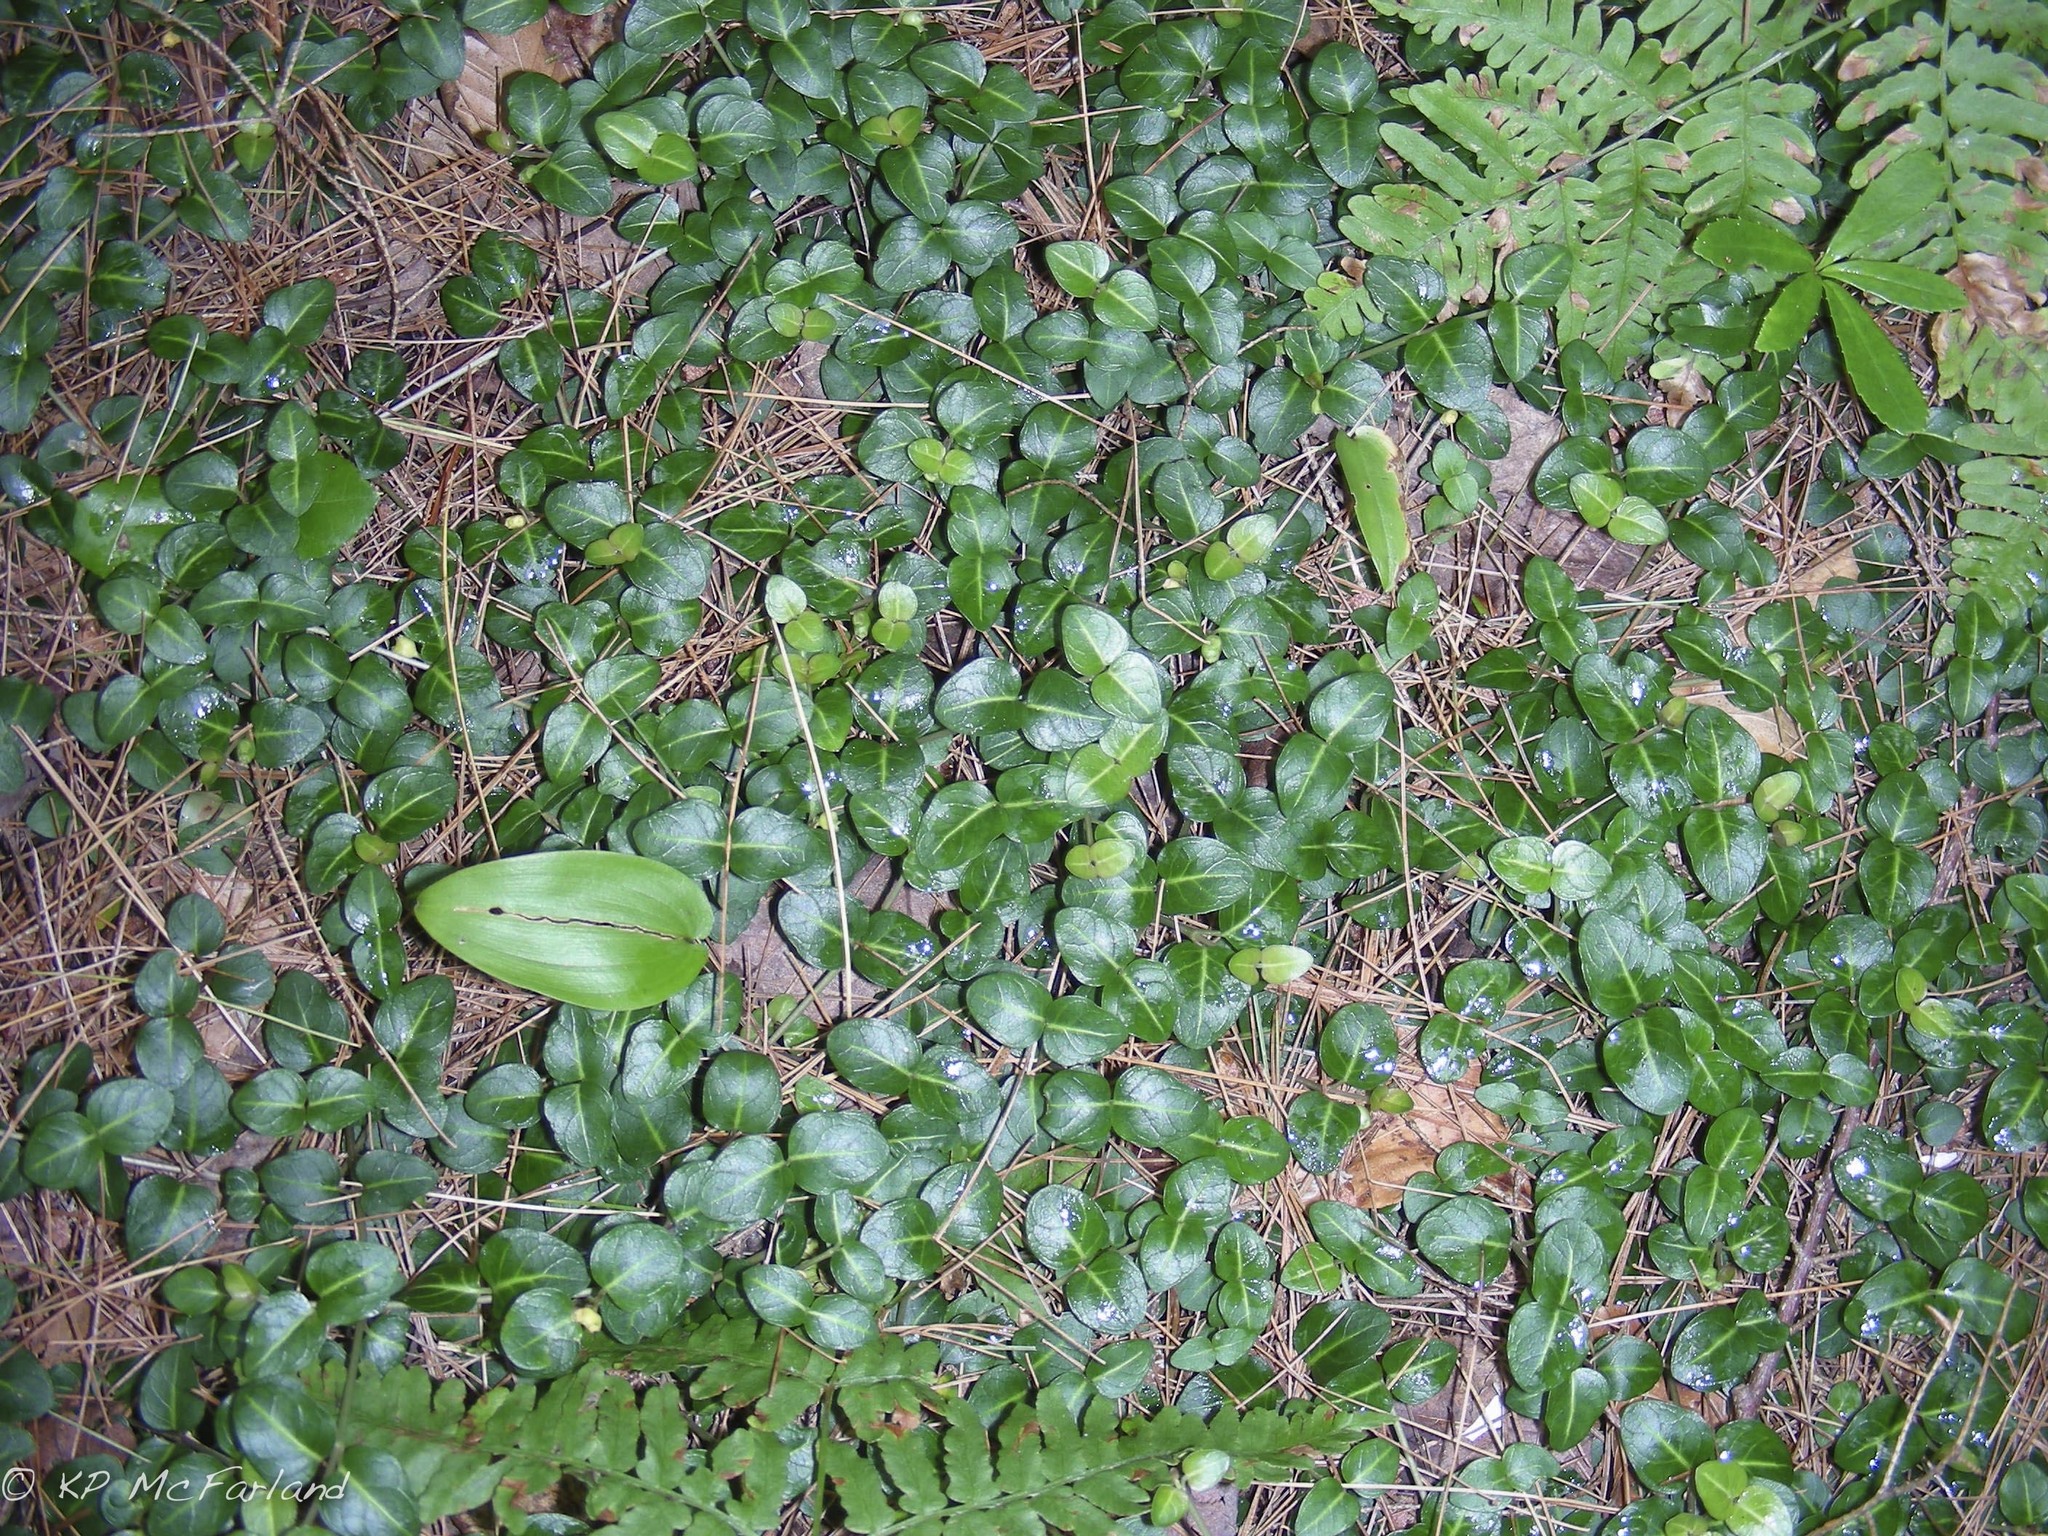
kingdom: Plantae
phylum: Tracheophyta
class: Magnoliopsida
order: Gentianales
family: Rubiaceae
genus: Mitchella
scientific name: Mitchella repens
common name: Partridge-berry
